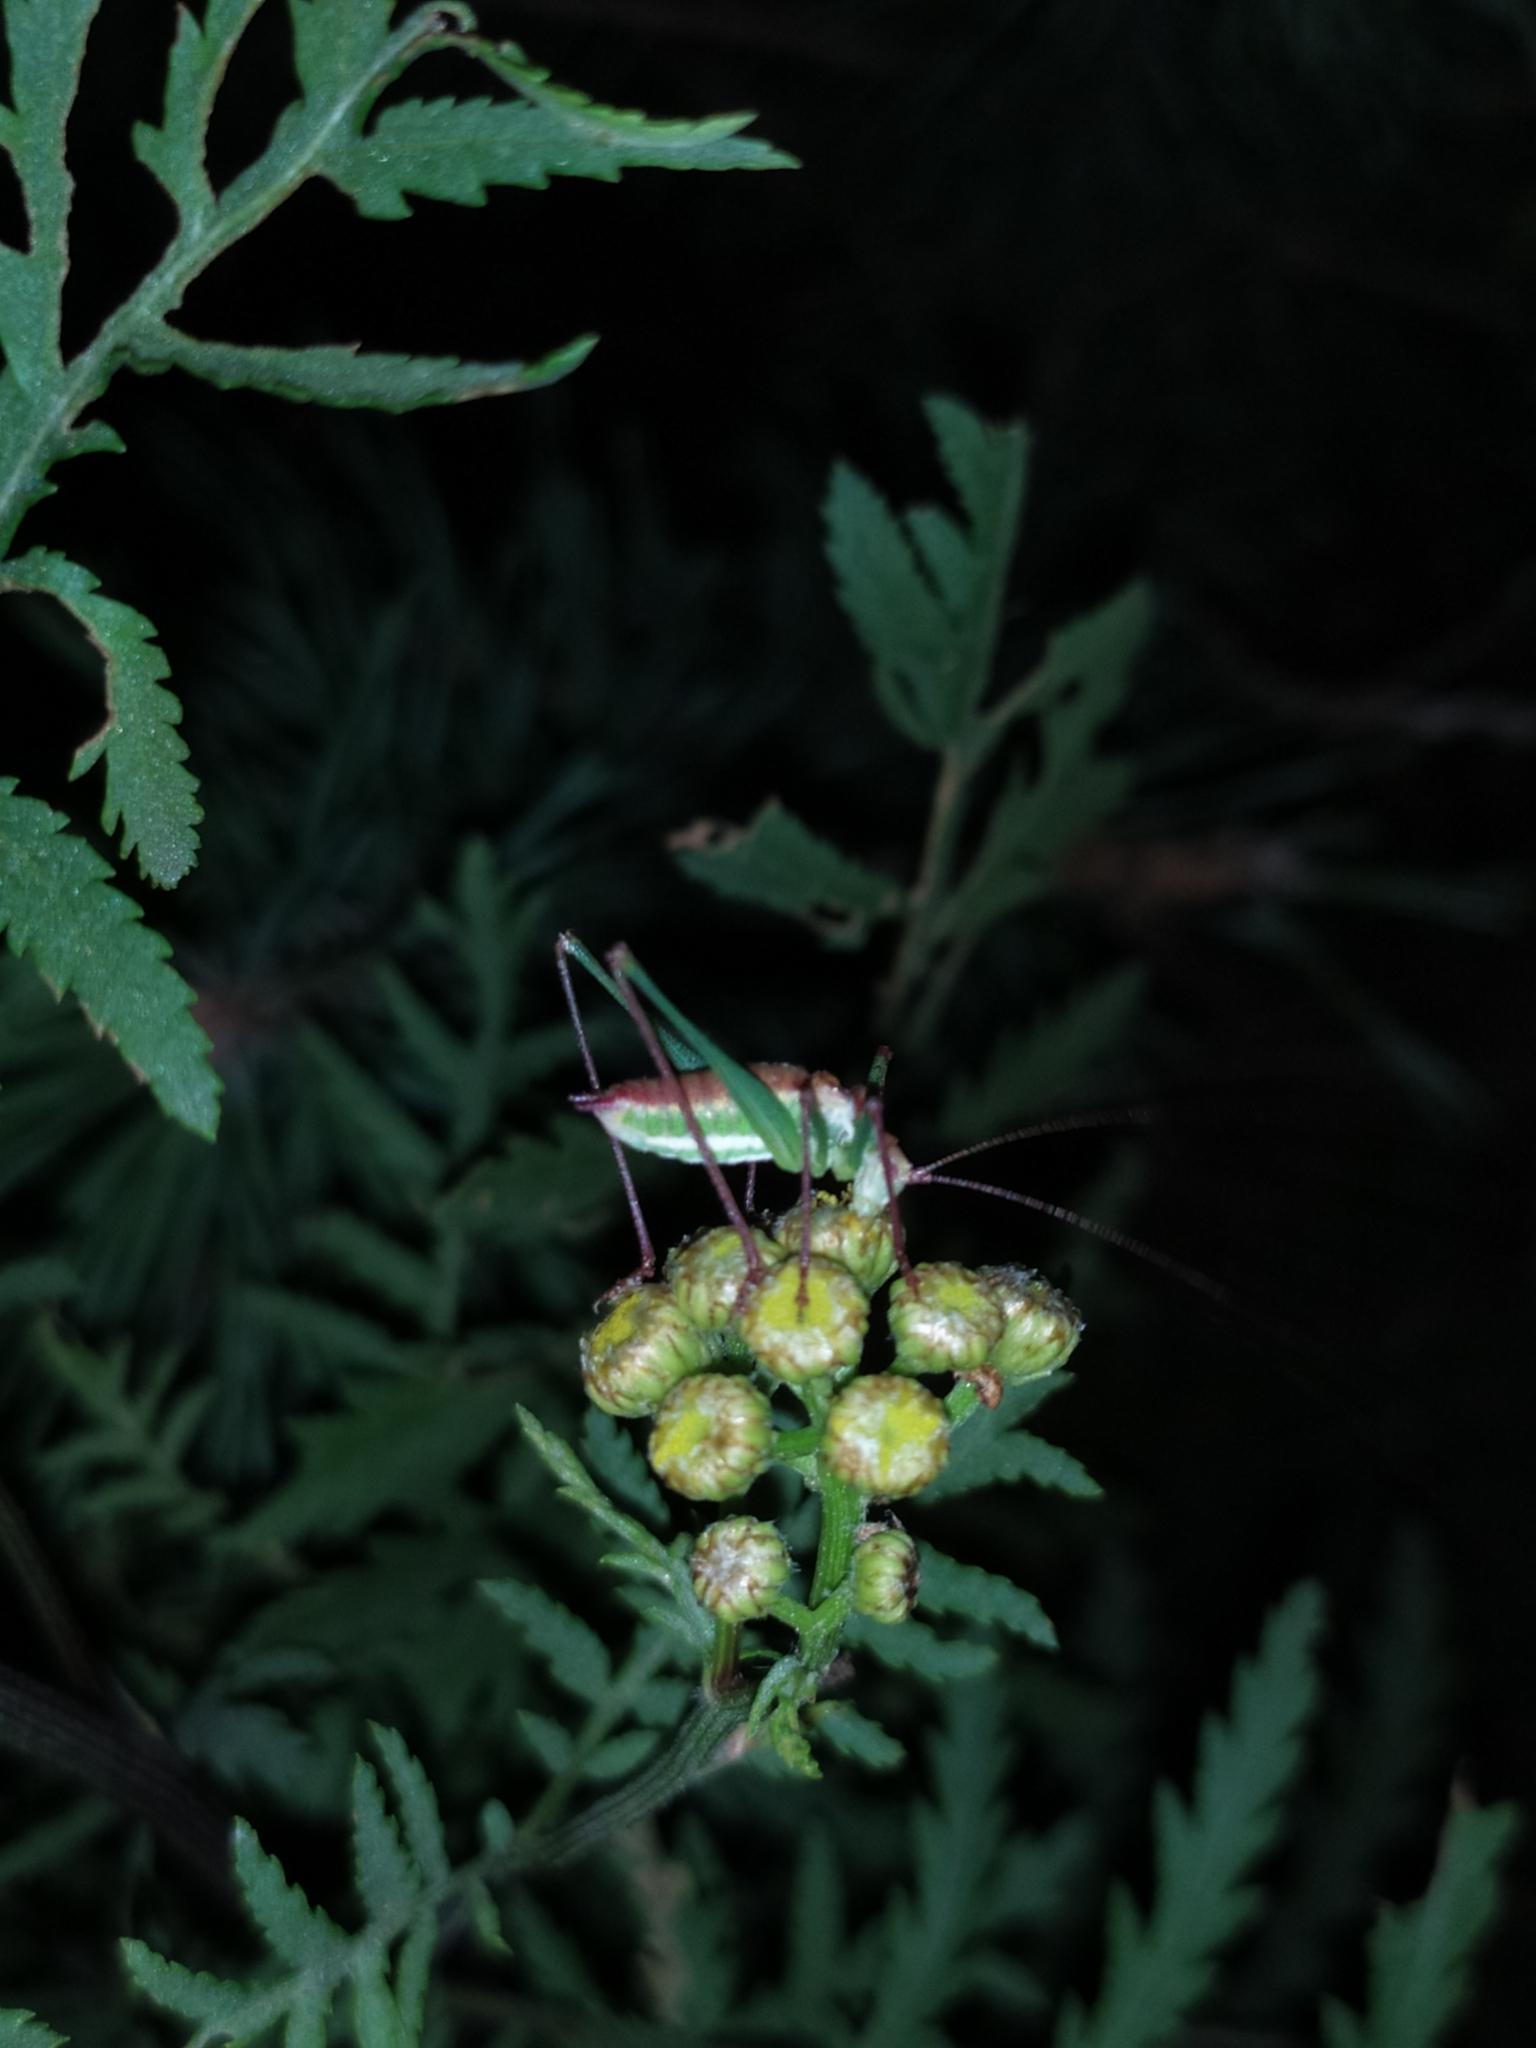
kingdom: Animalia
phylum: Arthropoda
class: Insecta
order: Orthoptera
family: Tettigoniidae
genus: Leptophyes
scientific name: Leptophyes albovittata
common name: Striped bush-cricket
